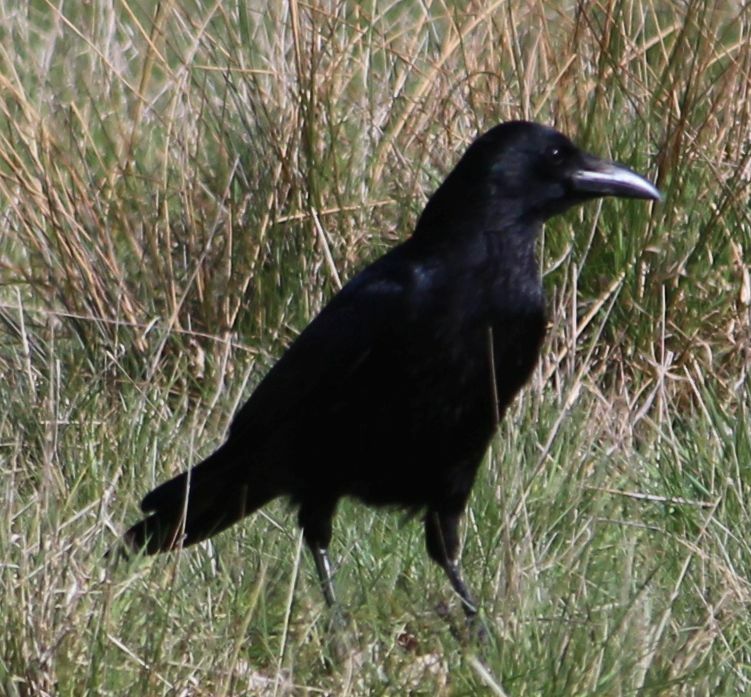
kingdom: Animalia
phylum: Chordata
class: Aves
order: Passeriformes
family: Corvidae
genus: Corvus
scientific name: Corvus corone
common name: Carrion crow
